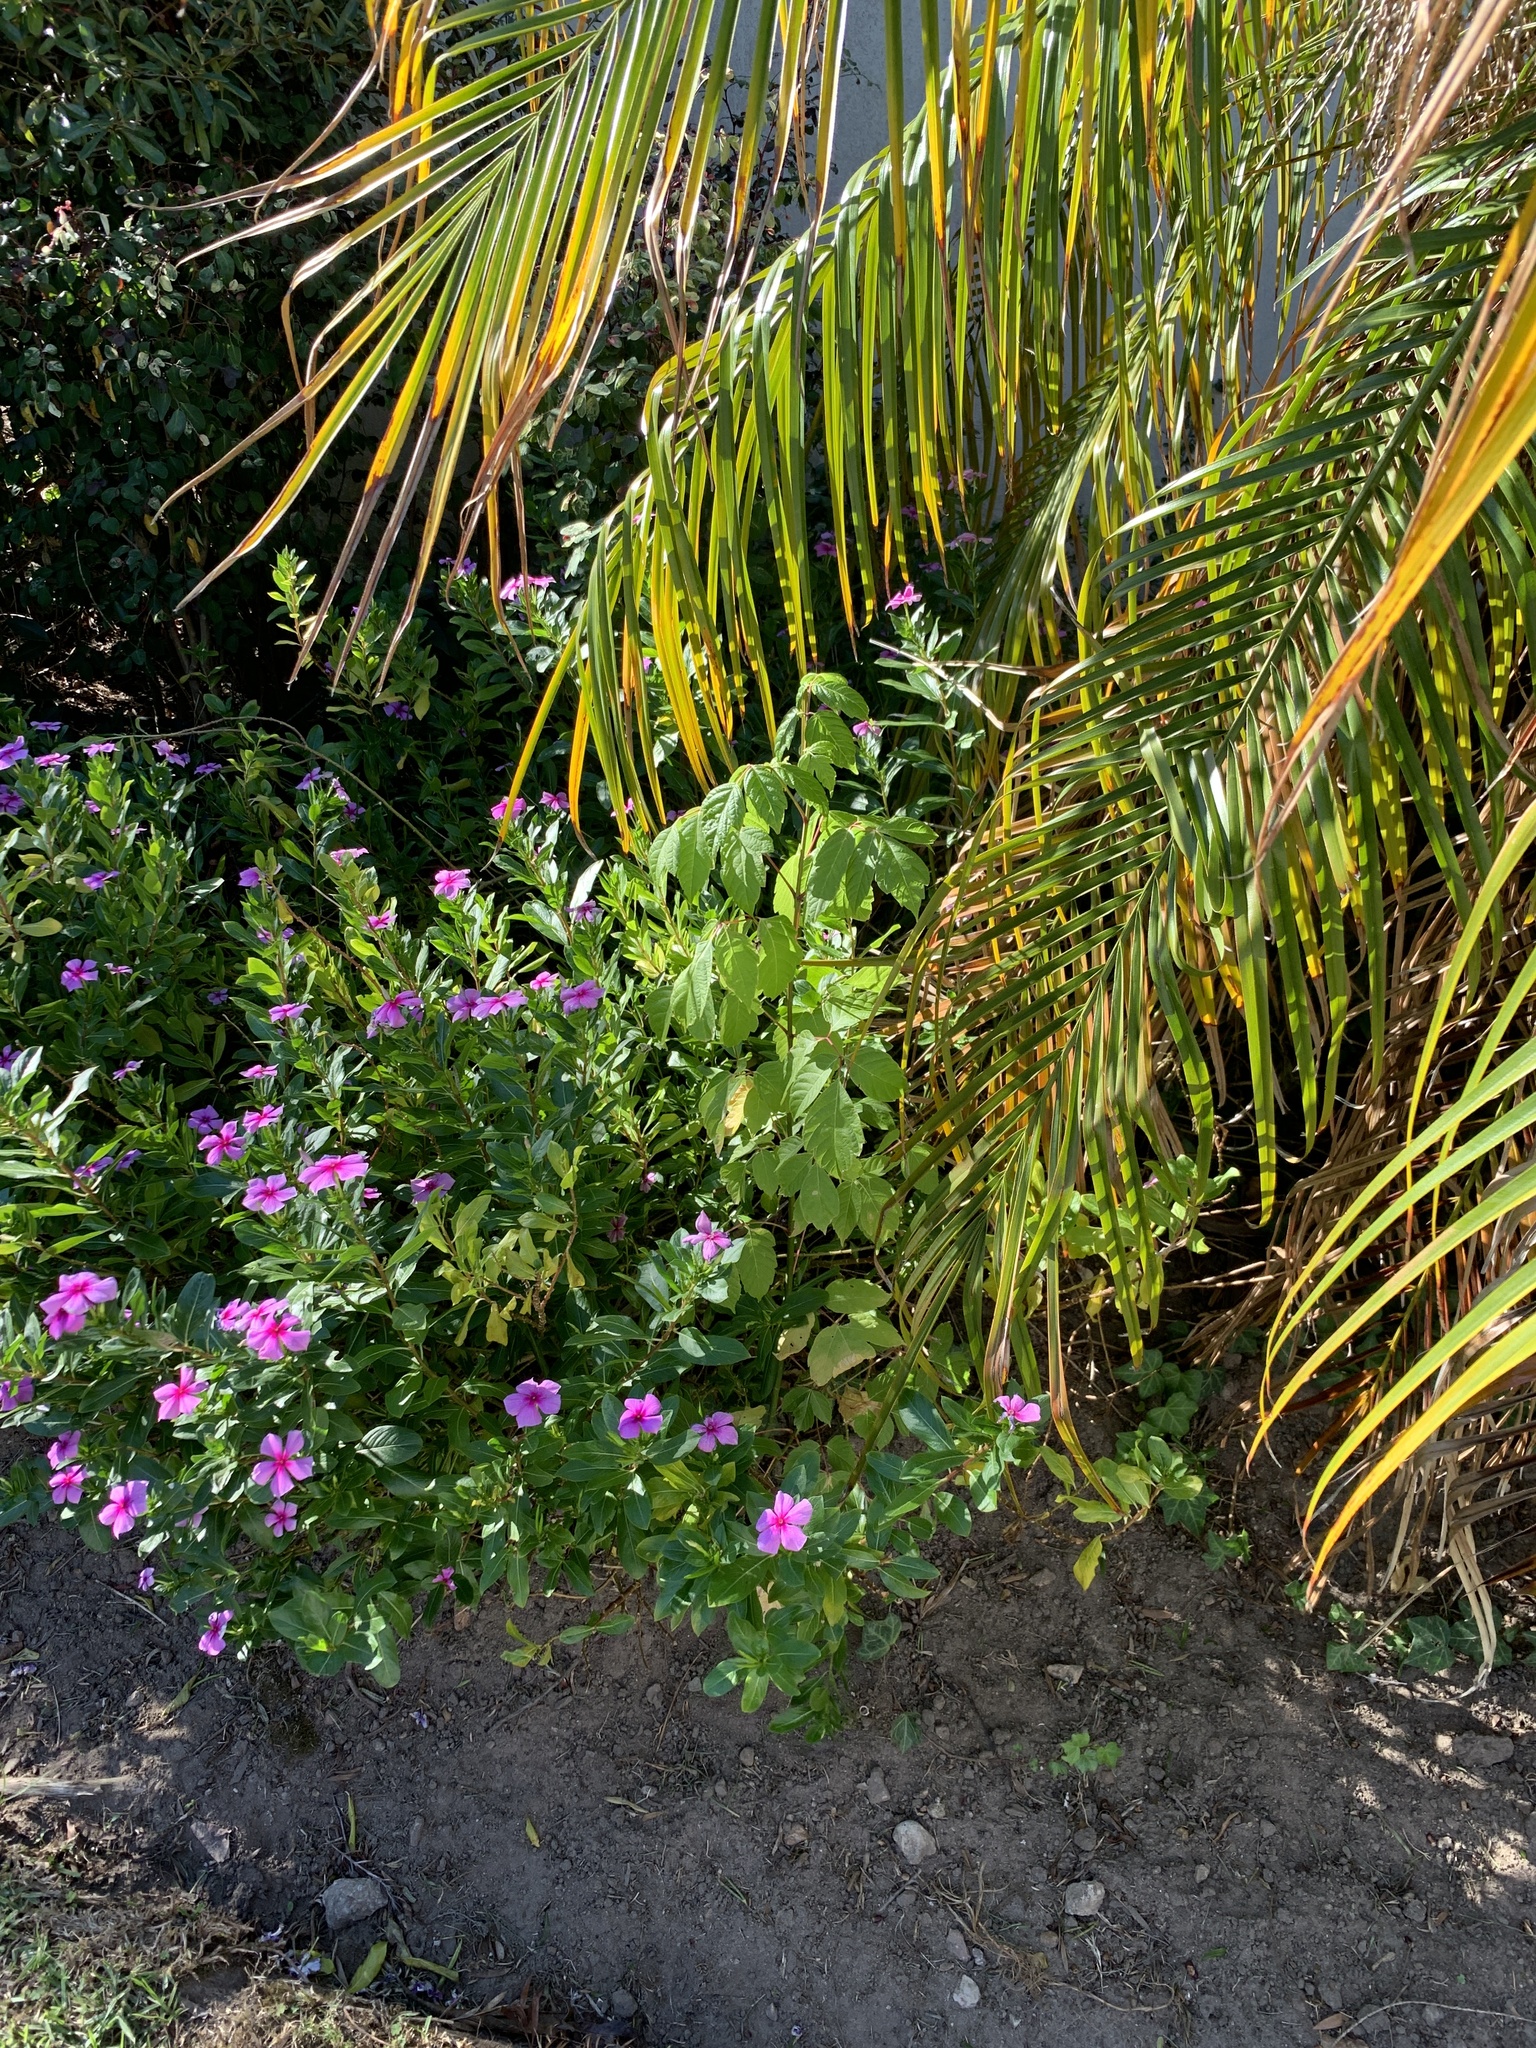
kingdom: Plantae
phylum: Tracheophyta
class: Magnoliopsida
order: Sapindales
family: Sapindaceae
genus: Acer
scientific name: Acer negundo
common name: Ashleaf maple
